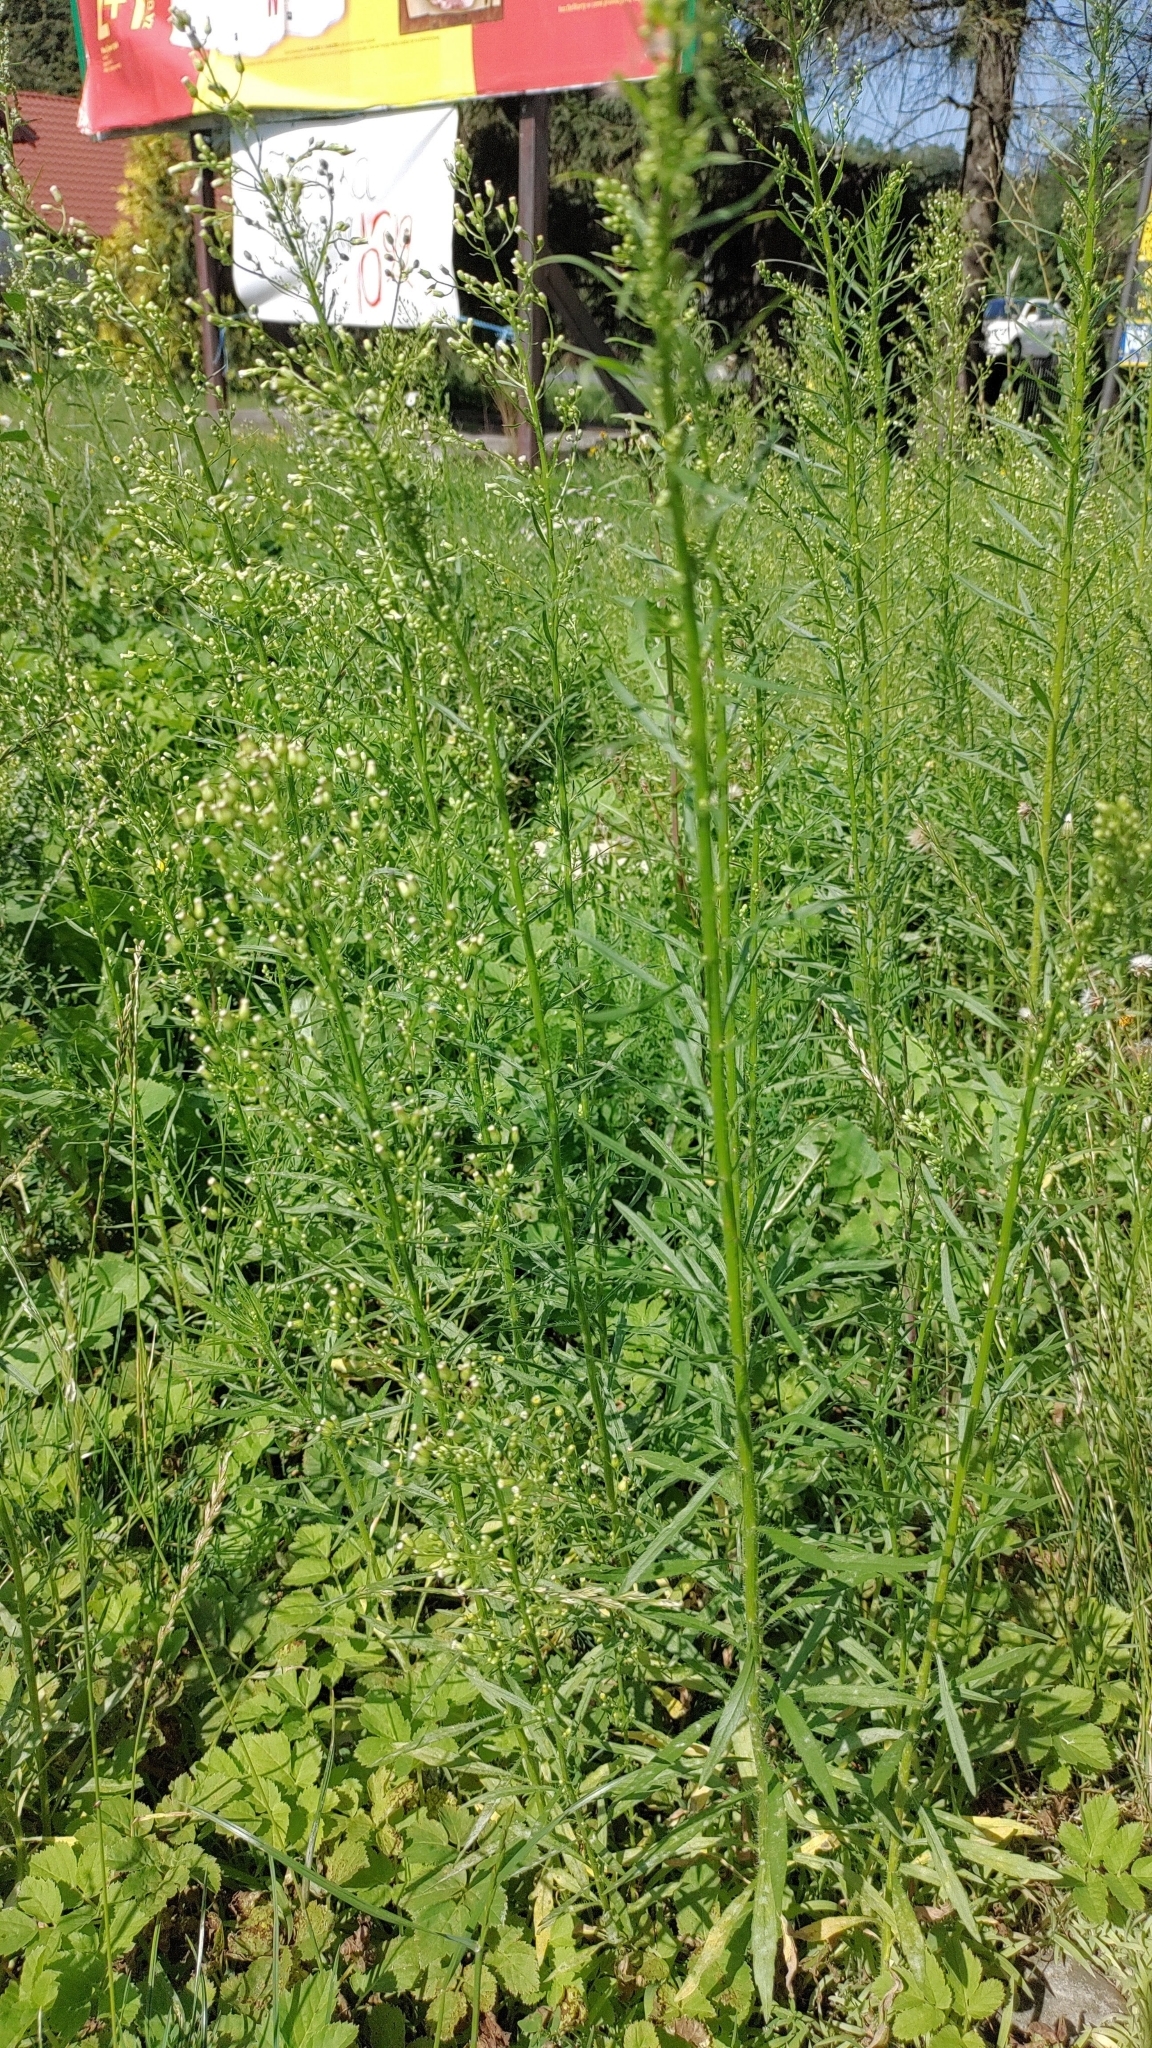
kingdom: Plantae
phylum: Tracheophyta
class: Magnoliopsida
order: Asterales
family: Asteraceae
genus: Erigeron
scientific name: Erigeron canadensis
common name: Canadian fleabane
